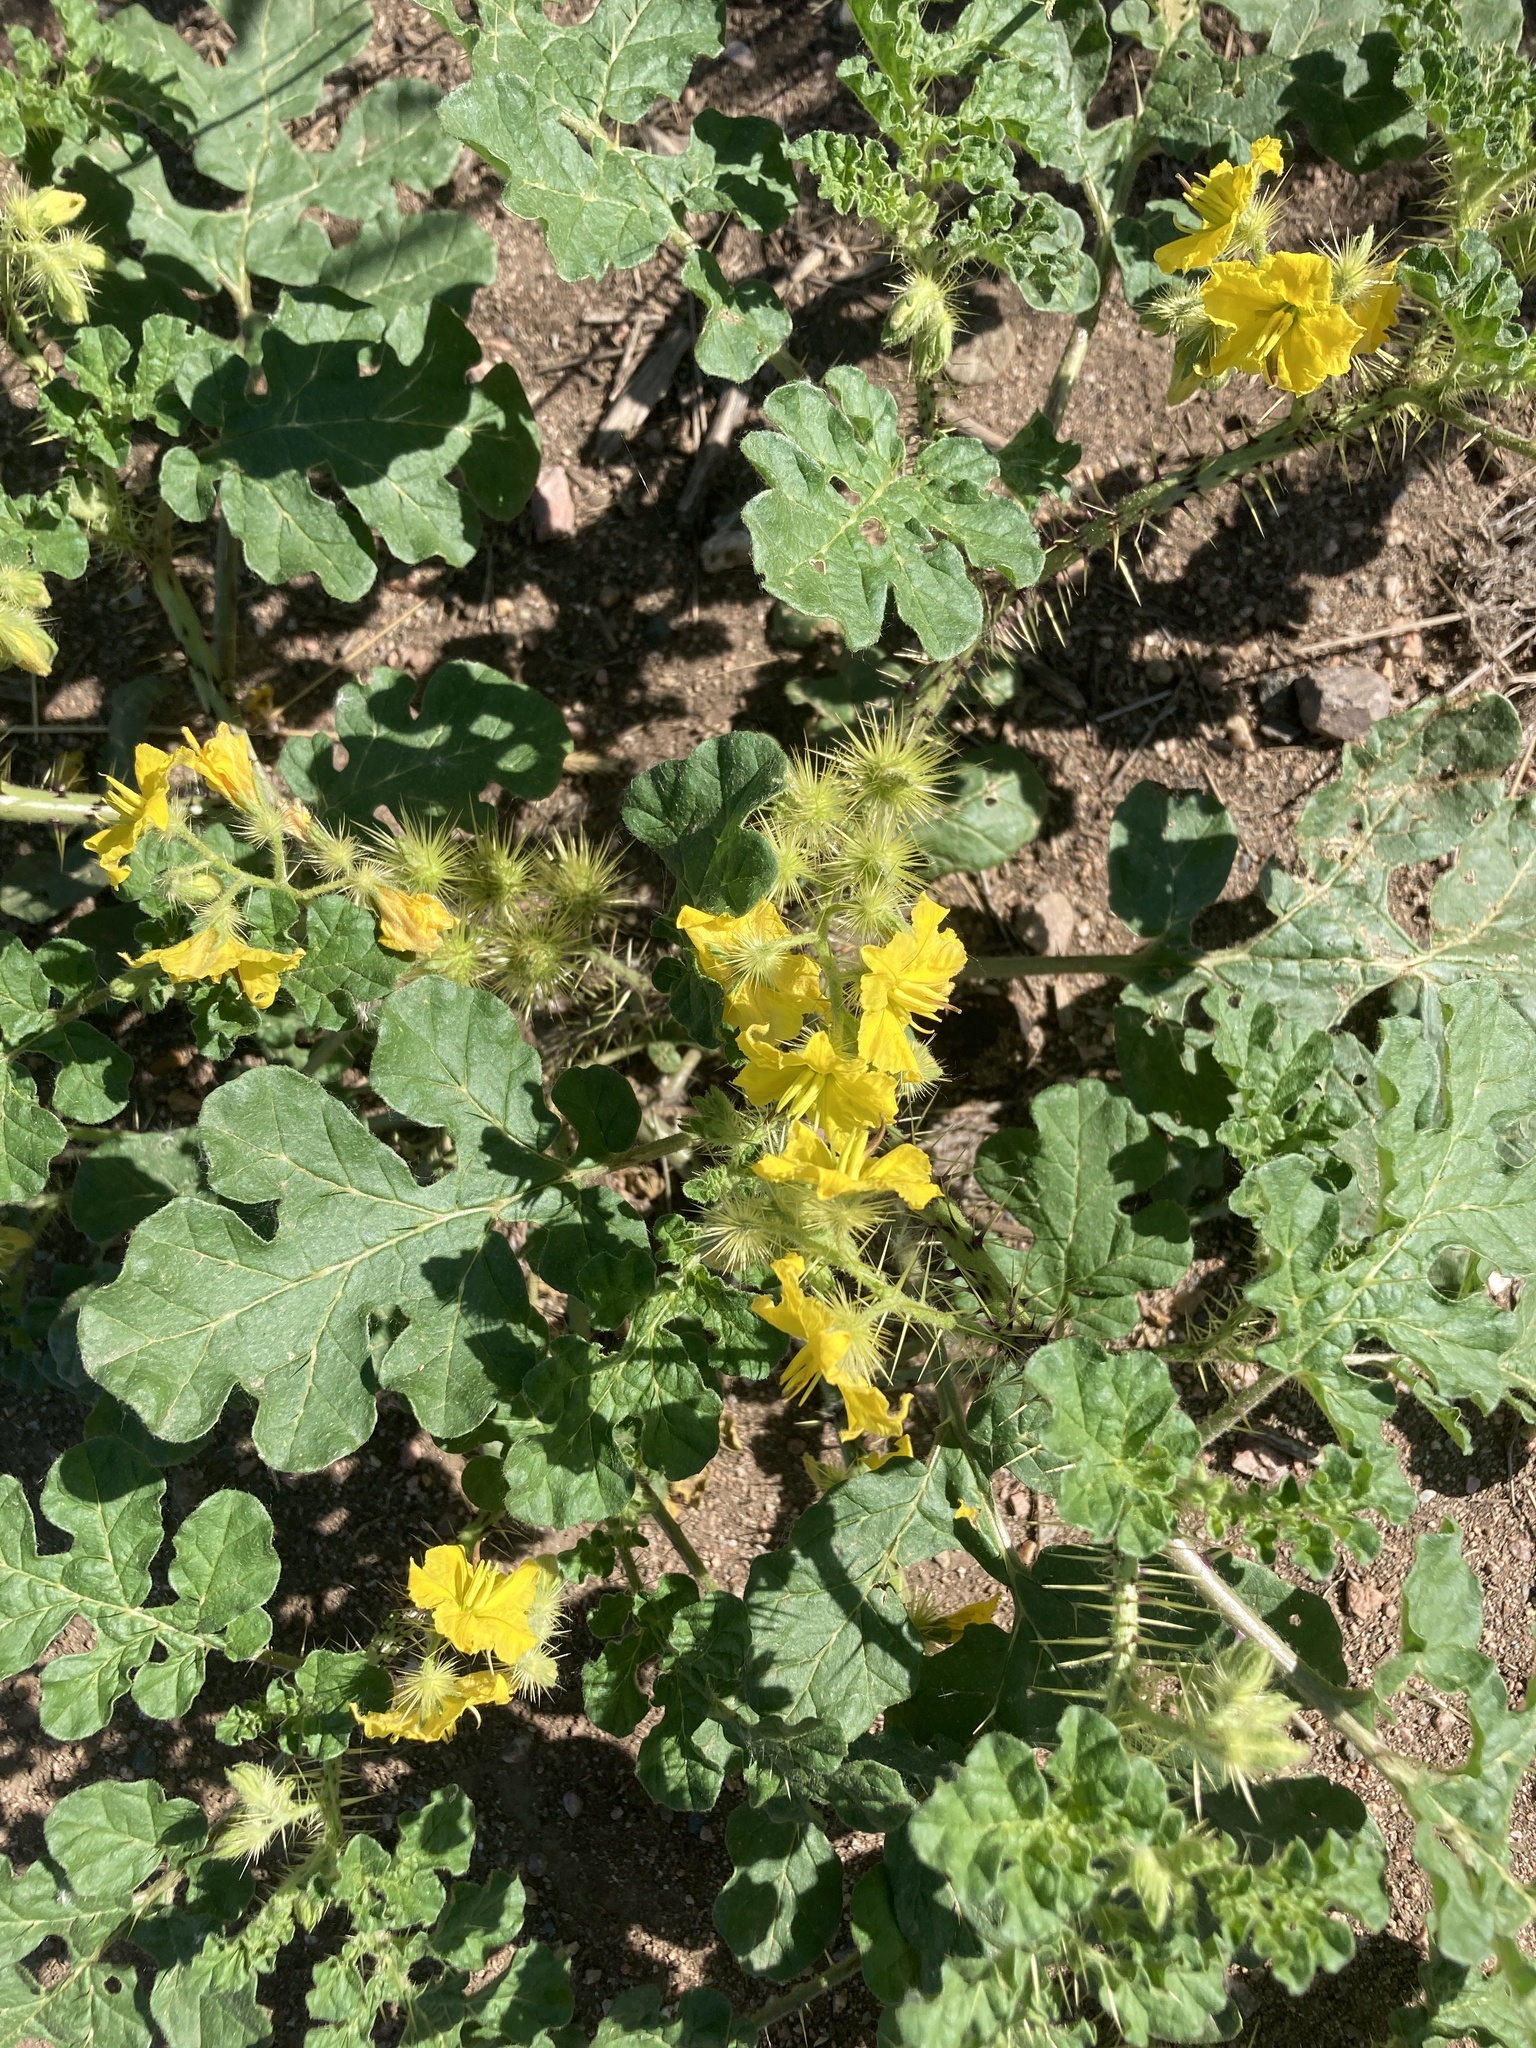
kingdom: Plantae
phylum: Tracheophyta
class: Magnoliopsida
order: Solanales
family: Solanaceae
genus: Solanum
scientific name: Solanum angustifolium
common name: Buffalobur nightshade
